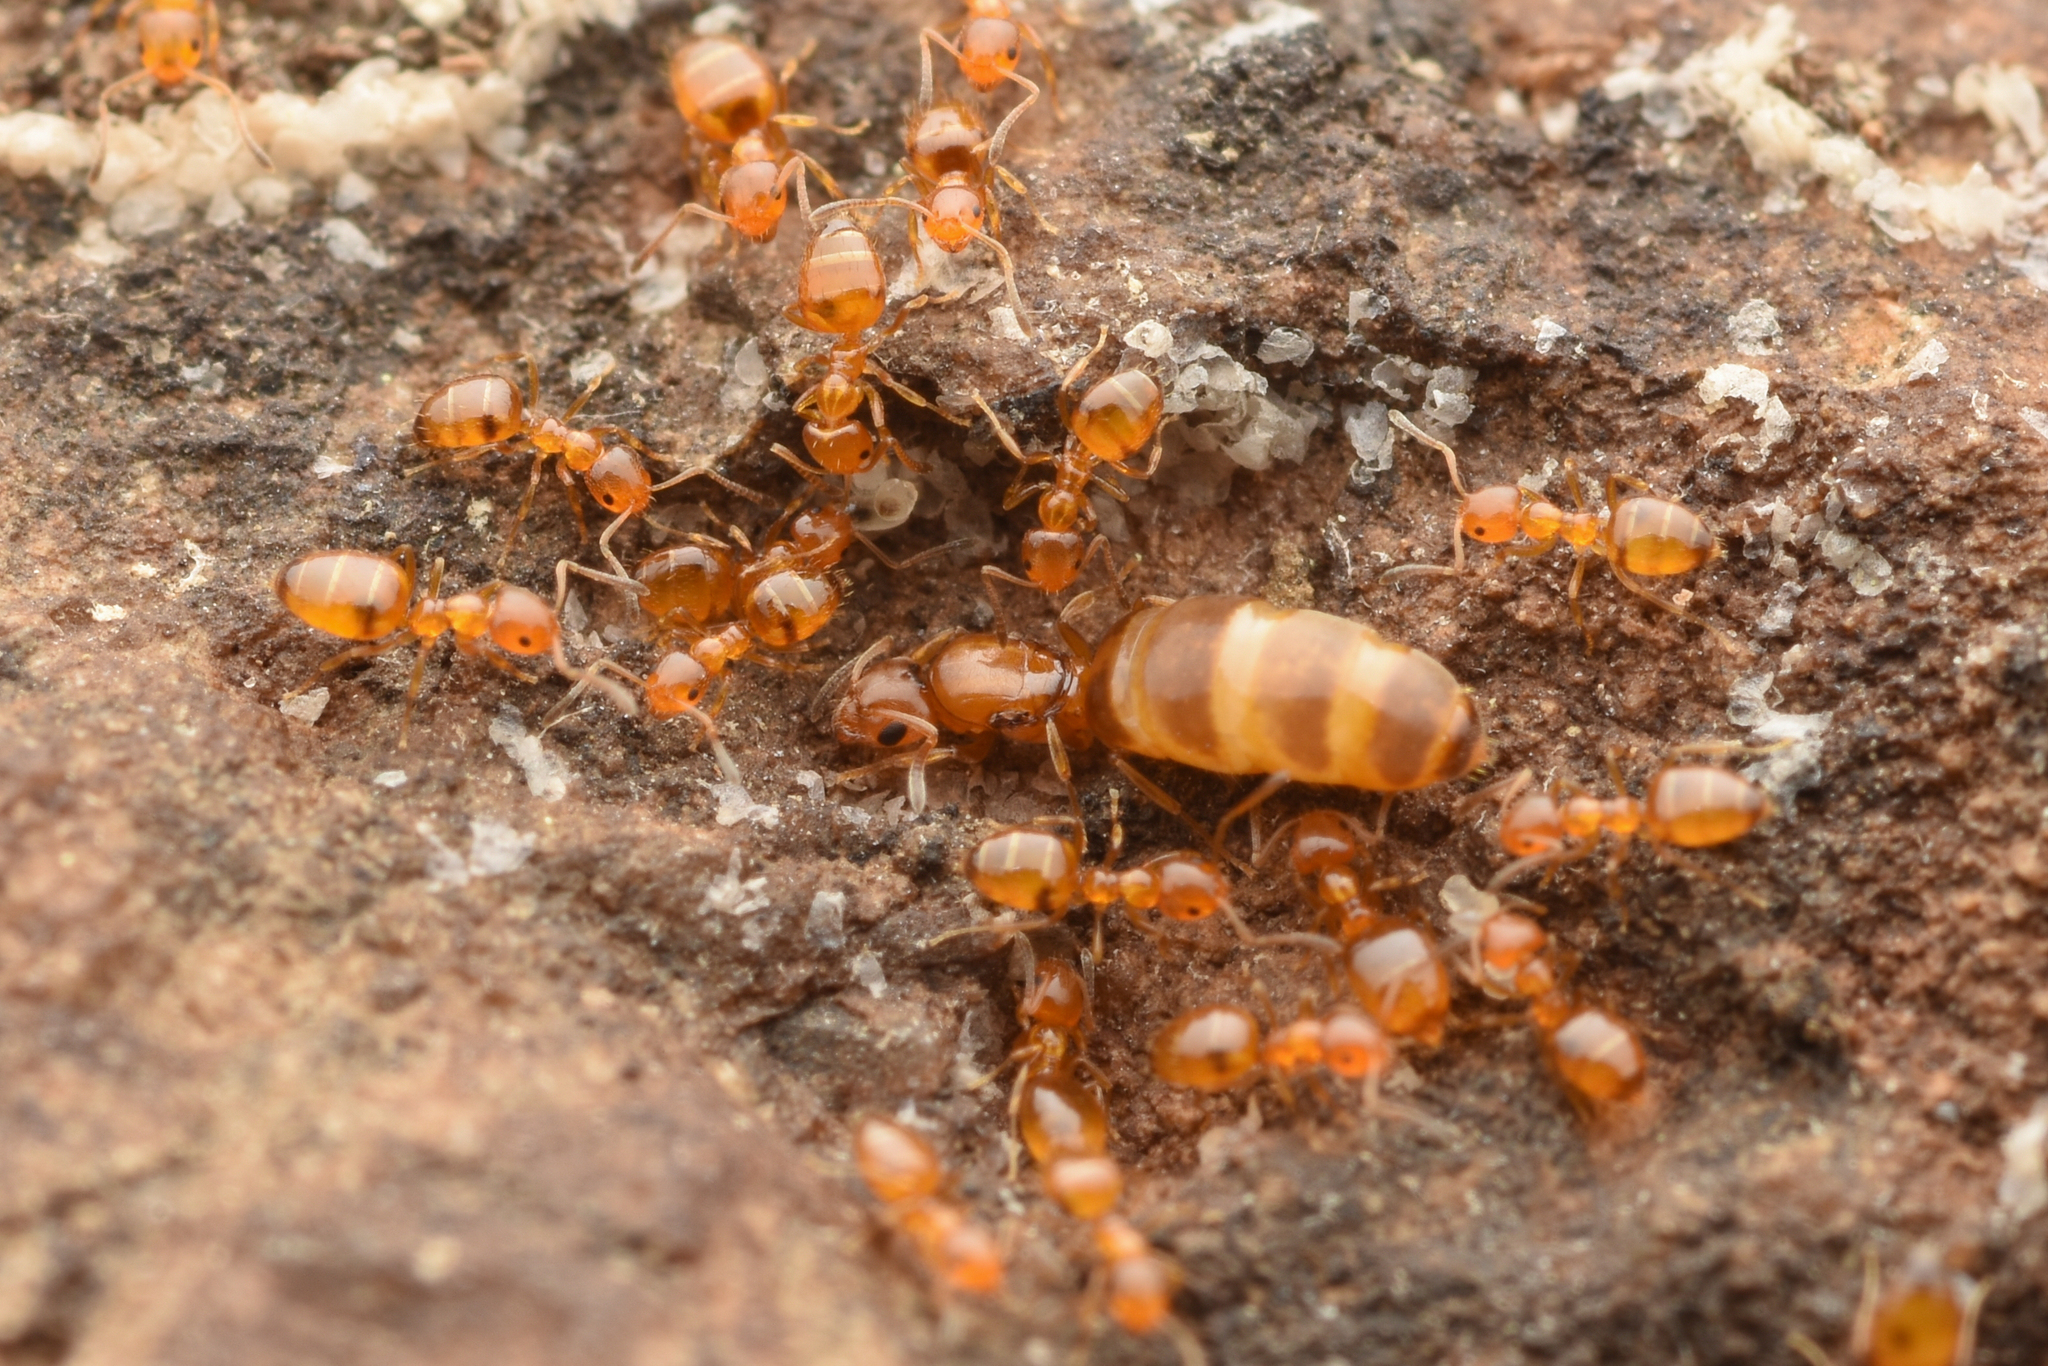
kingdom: Animalia
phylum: Arthropoda
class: Insecta
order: Hymenoptera
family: Formicidae
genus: Plagiolepis
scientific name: Plagiolepis flavescens
